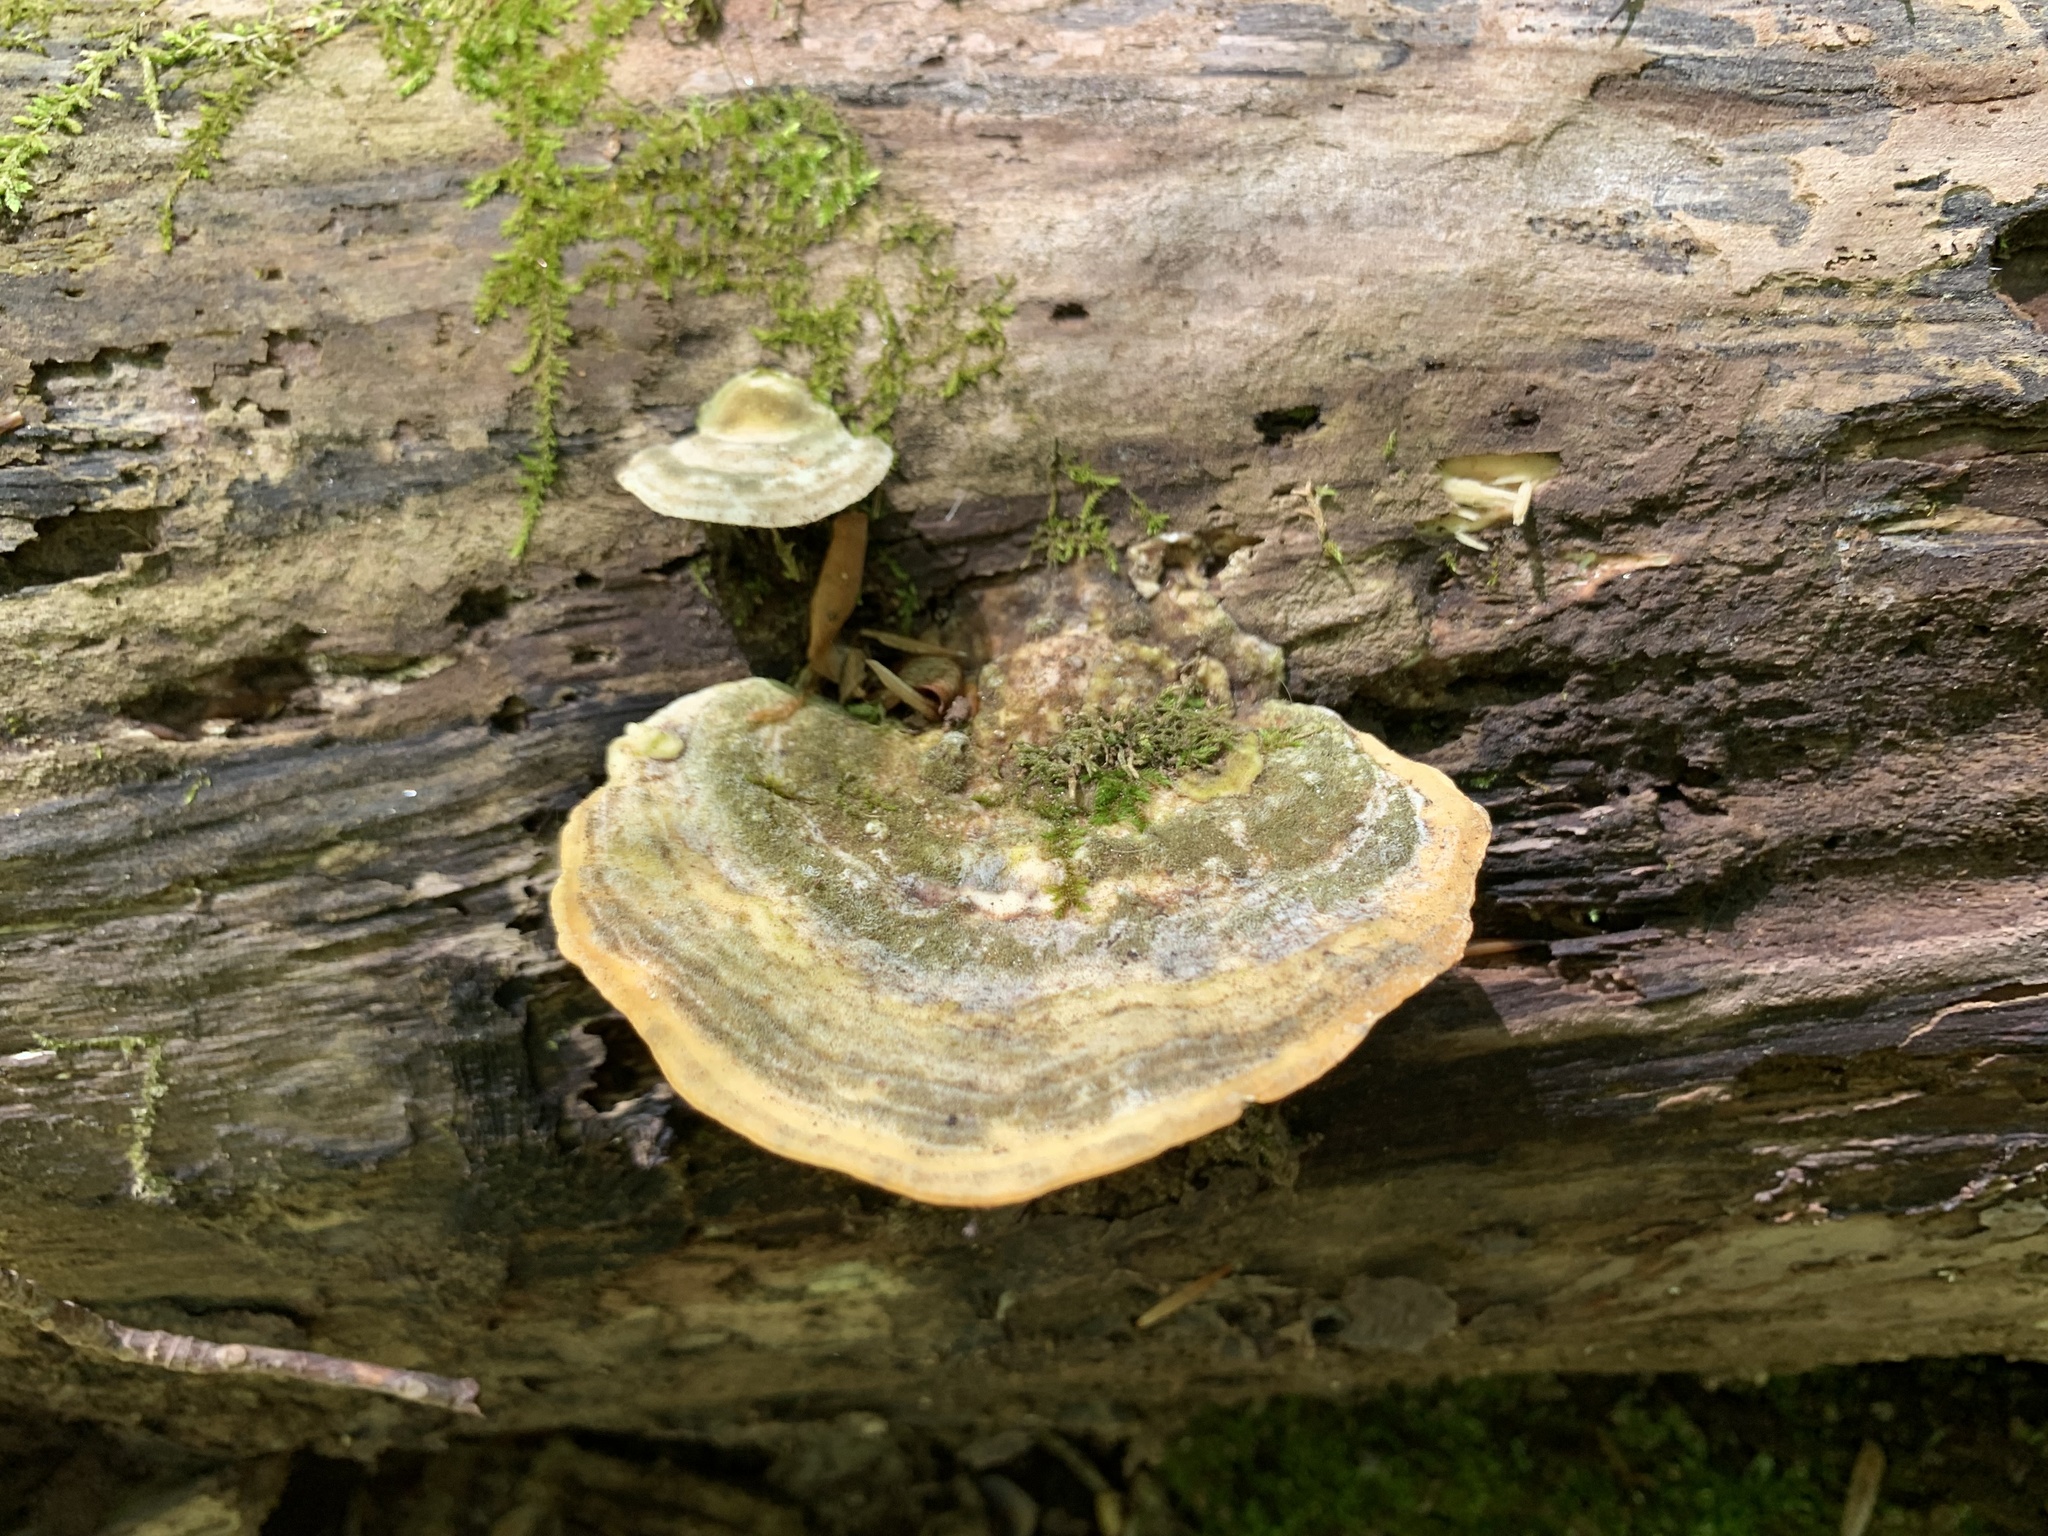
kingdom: Fungi
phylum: Basidiomycota
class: Agaricomycetes
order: Polyporales
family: Polyporaceae
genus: Trametes
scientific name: Trametes gibbosa
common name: Lumpy bracket
